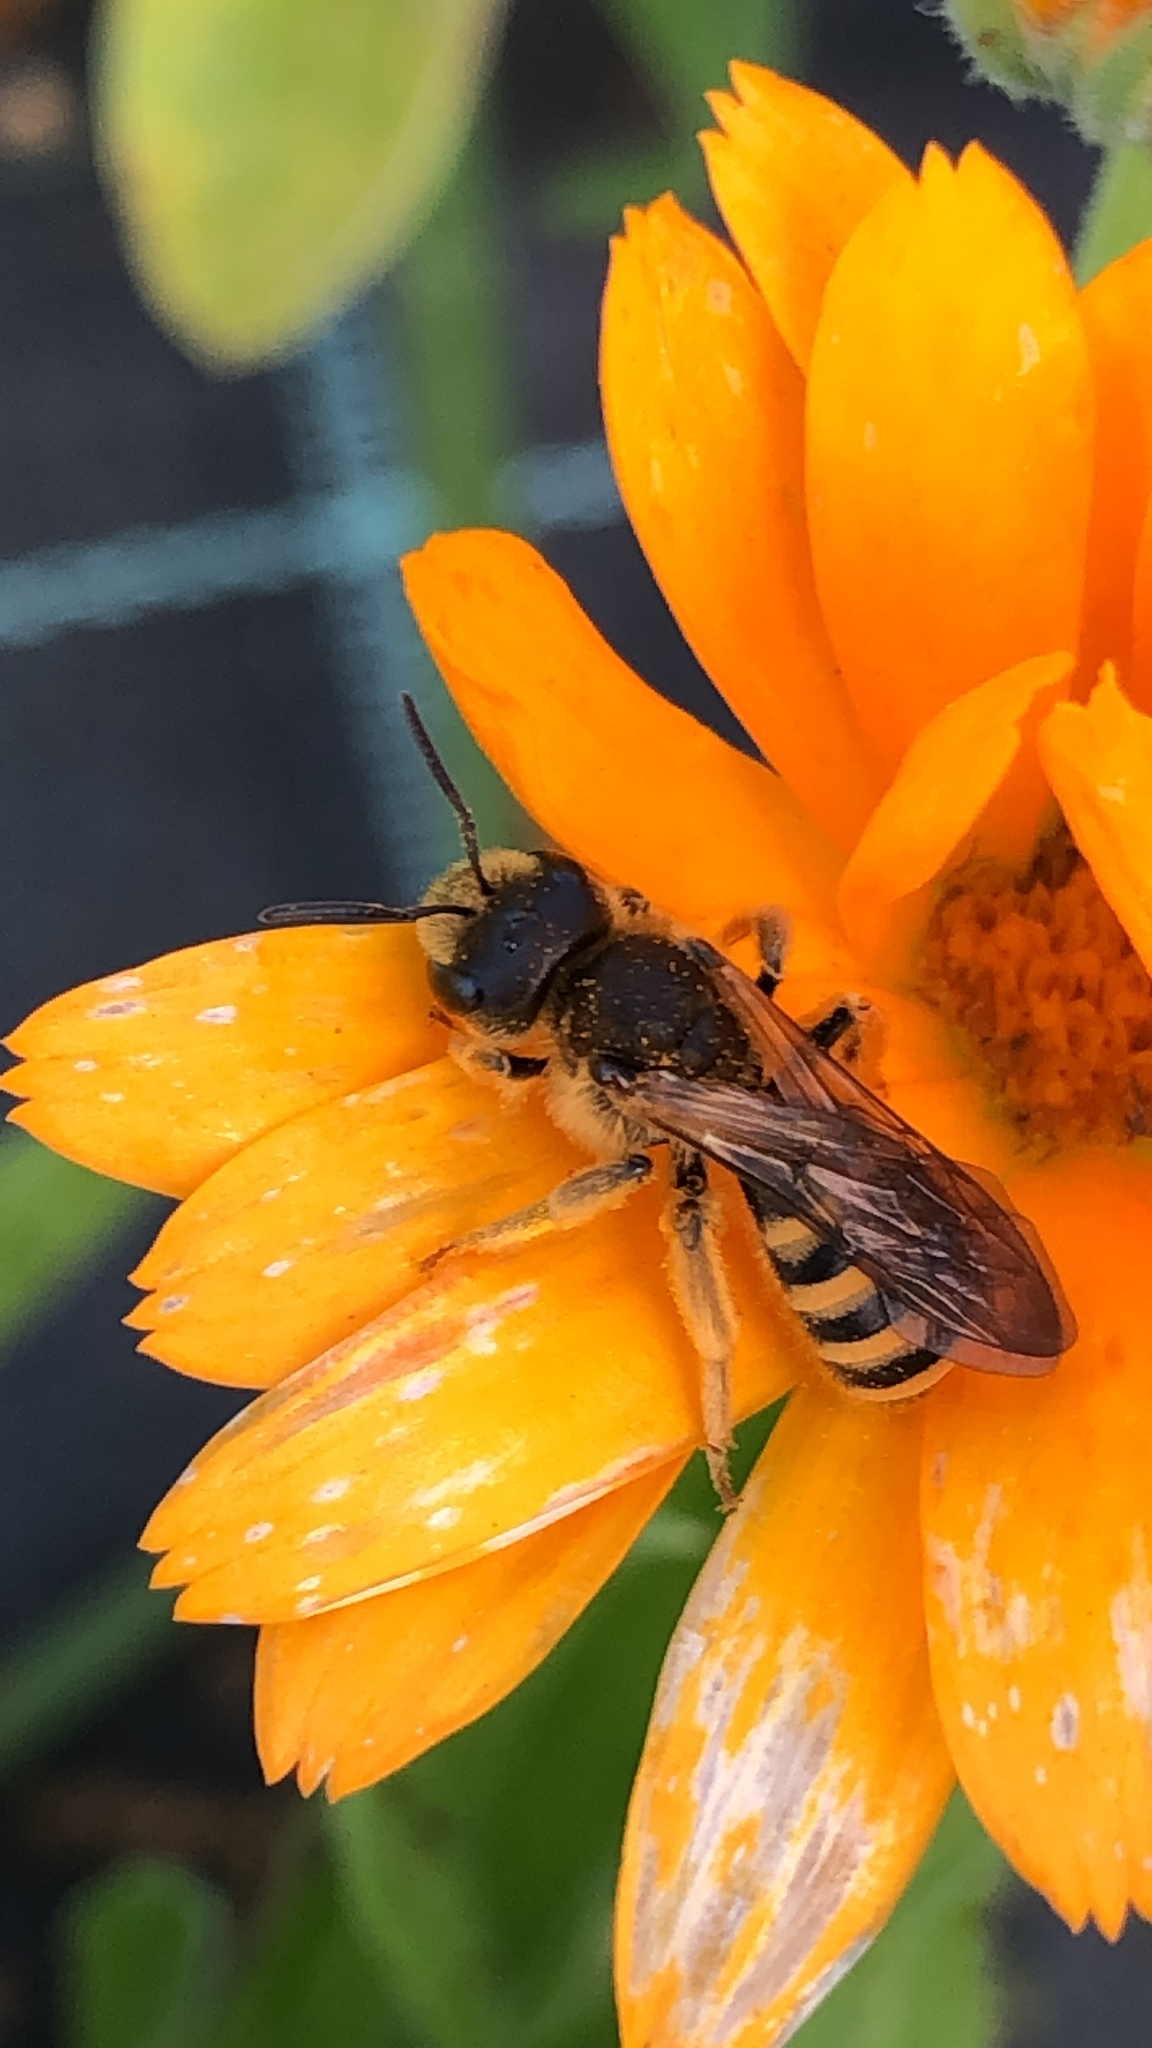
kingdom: Animalia
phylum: Arthropoda
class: Insecta
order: Hymenoptera
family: Halictidae
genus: Halictus
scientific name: Halictus scabiosae
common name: Great banded furrow bee
